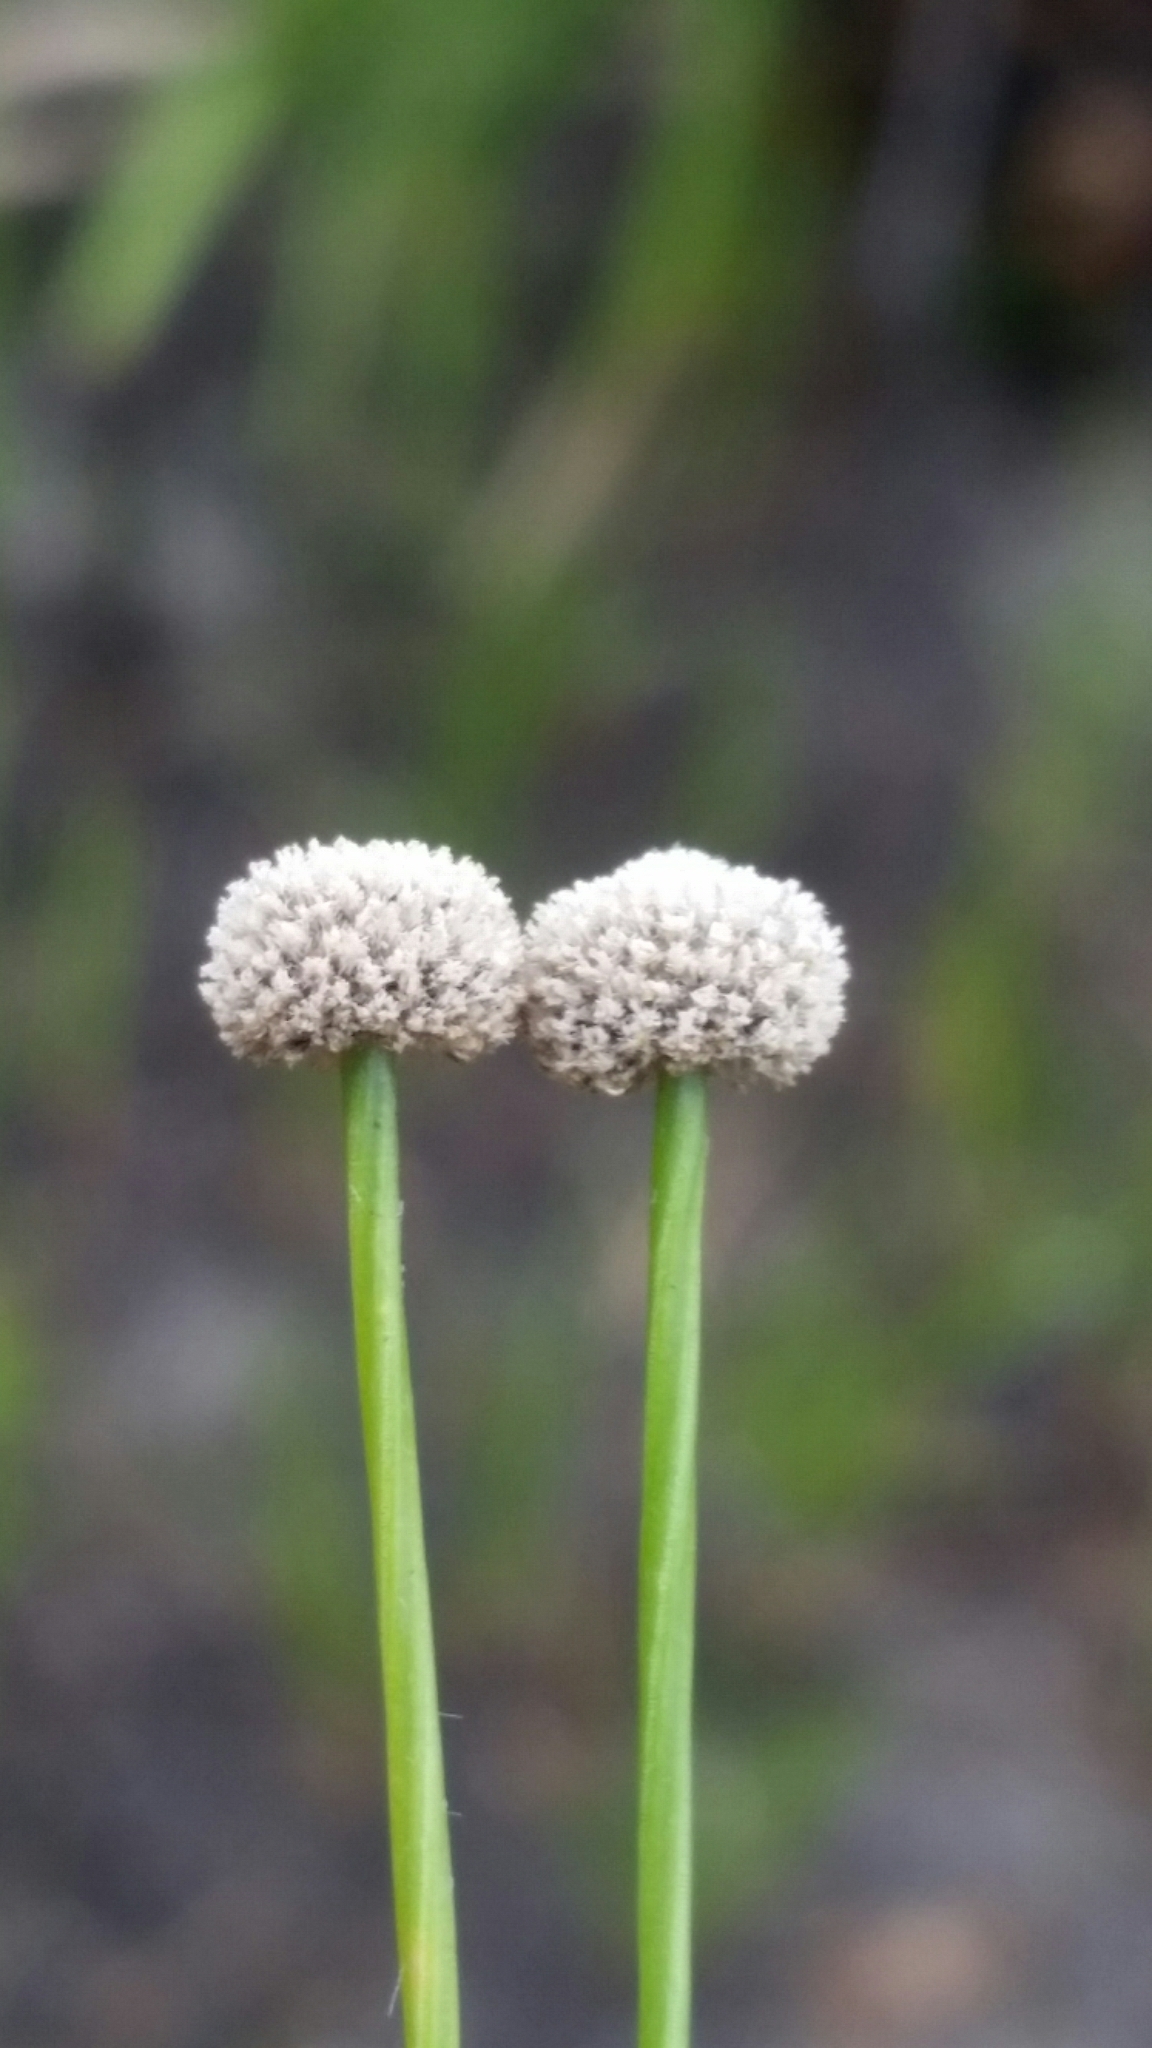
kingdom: Plantae
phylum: Tracheophyta
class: Liliopsida
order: Poales
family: Eriocaulaceae
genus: Paepalanthus
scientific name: Paepalanthus anceps
